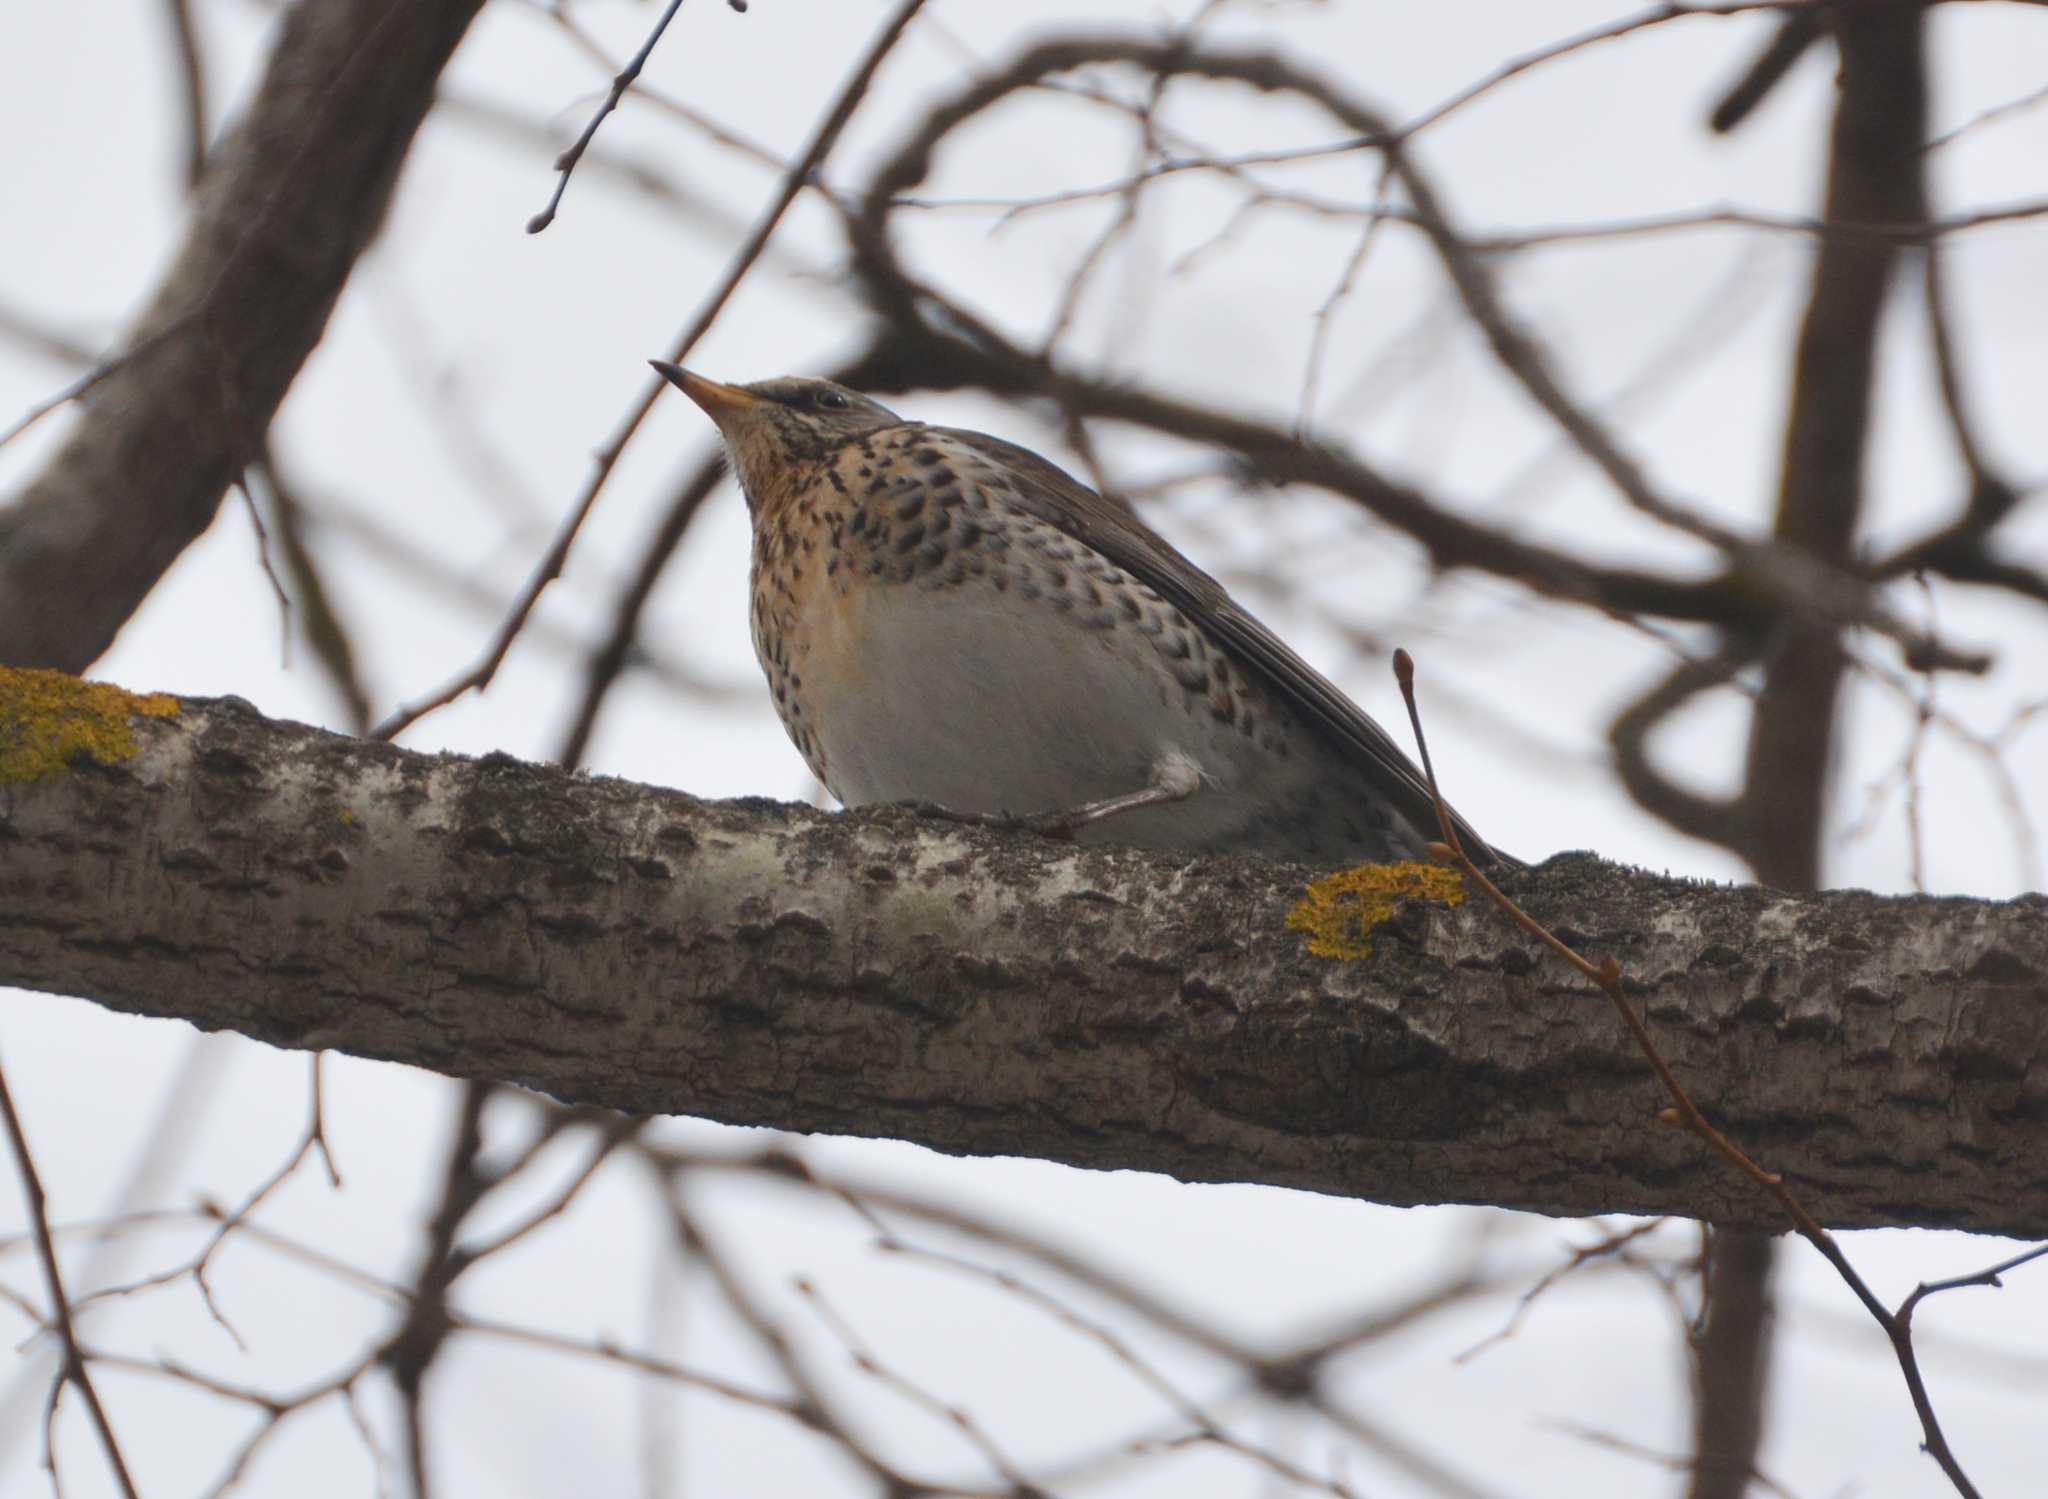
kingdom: Animalia
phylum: Chordata
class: Aves
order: Passeriformes
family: Turdidae
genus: Turdus
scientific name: Turdus pilaris
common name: Fieldfare
